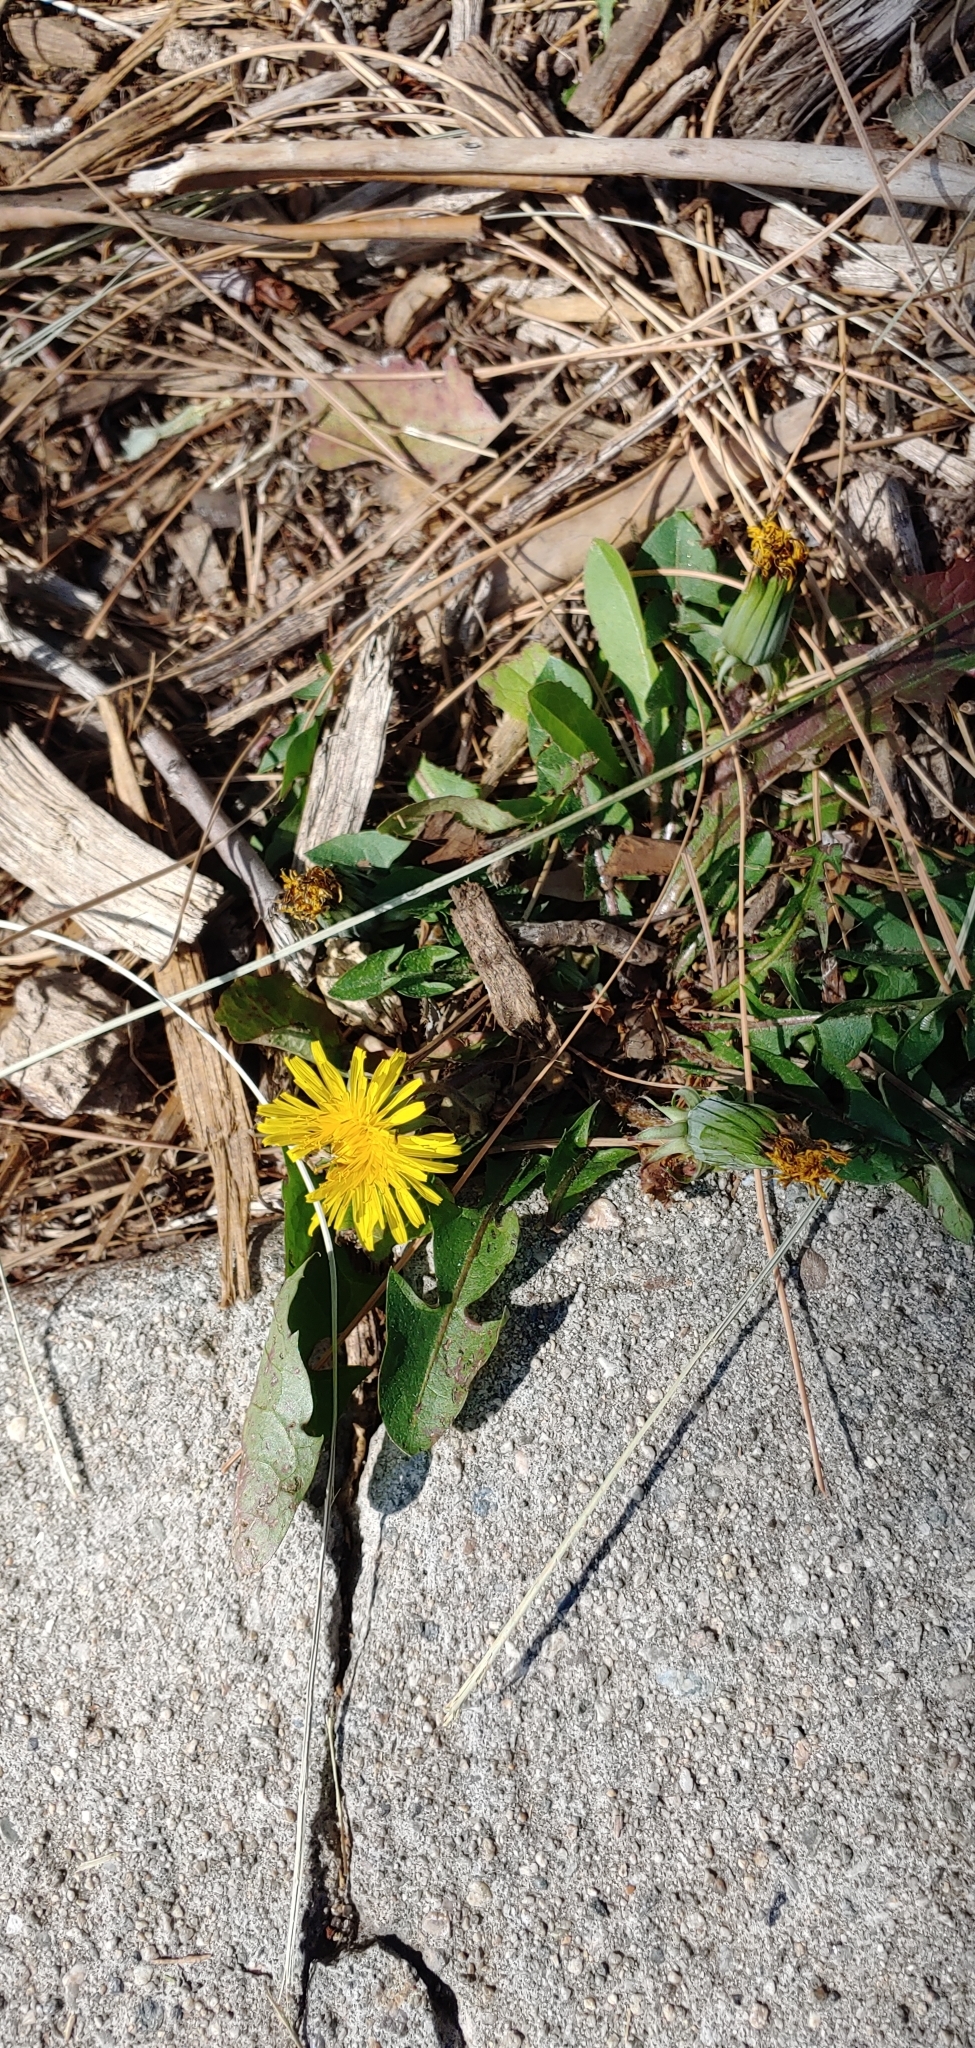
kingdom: Plantae
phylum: Tracheophyta
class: Magnoliopsida
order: Asterales
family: Asteraceae
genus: Taraxacum
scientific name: Taraxacum officinale
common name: Common dandelion
